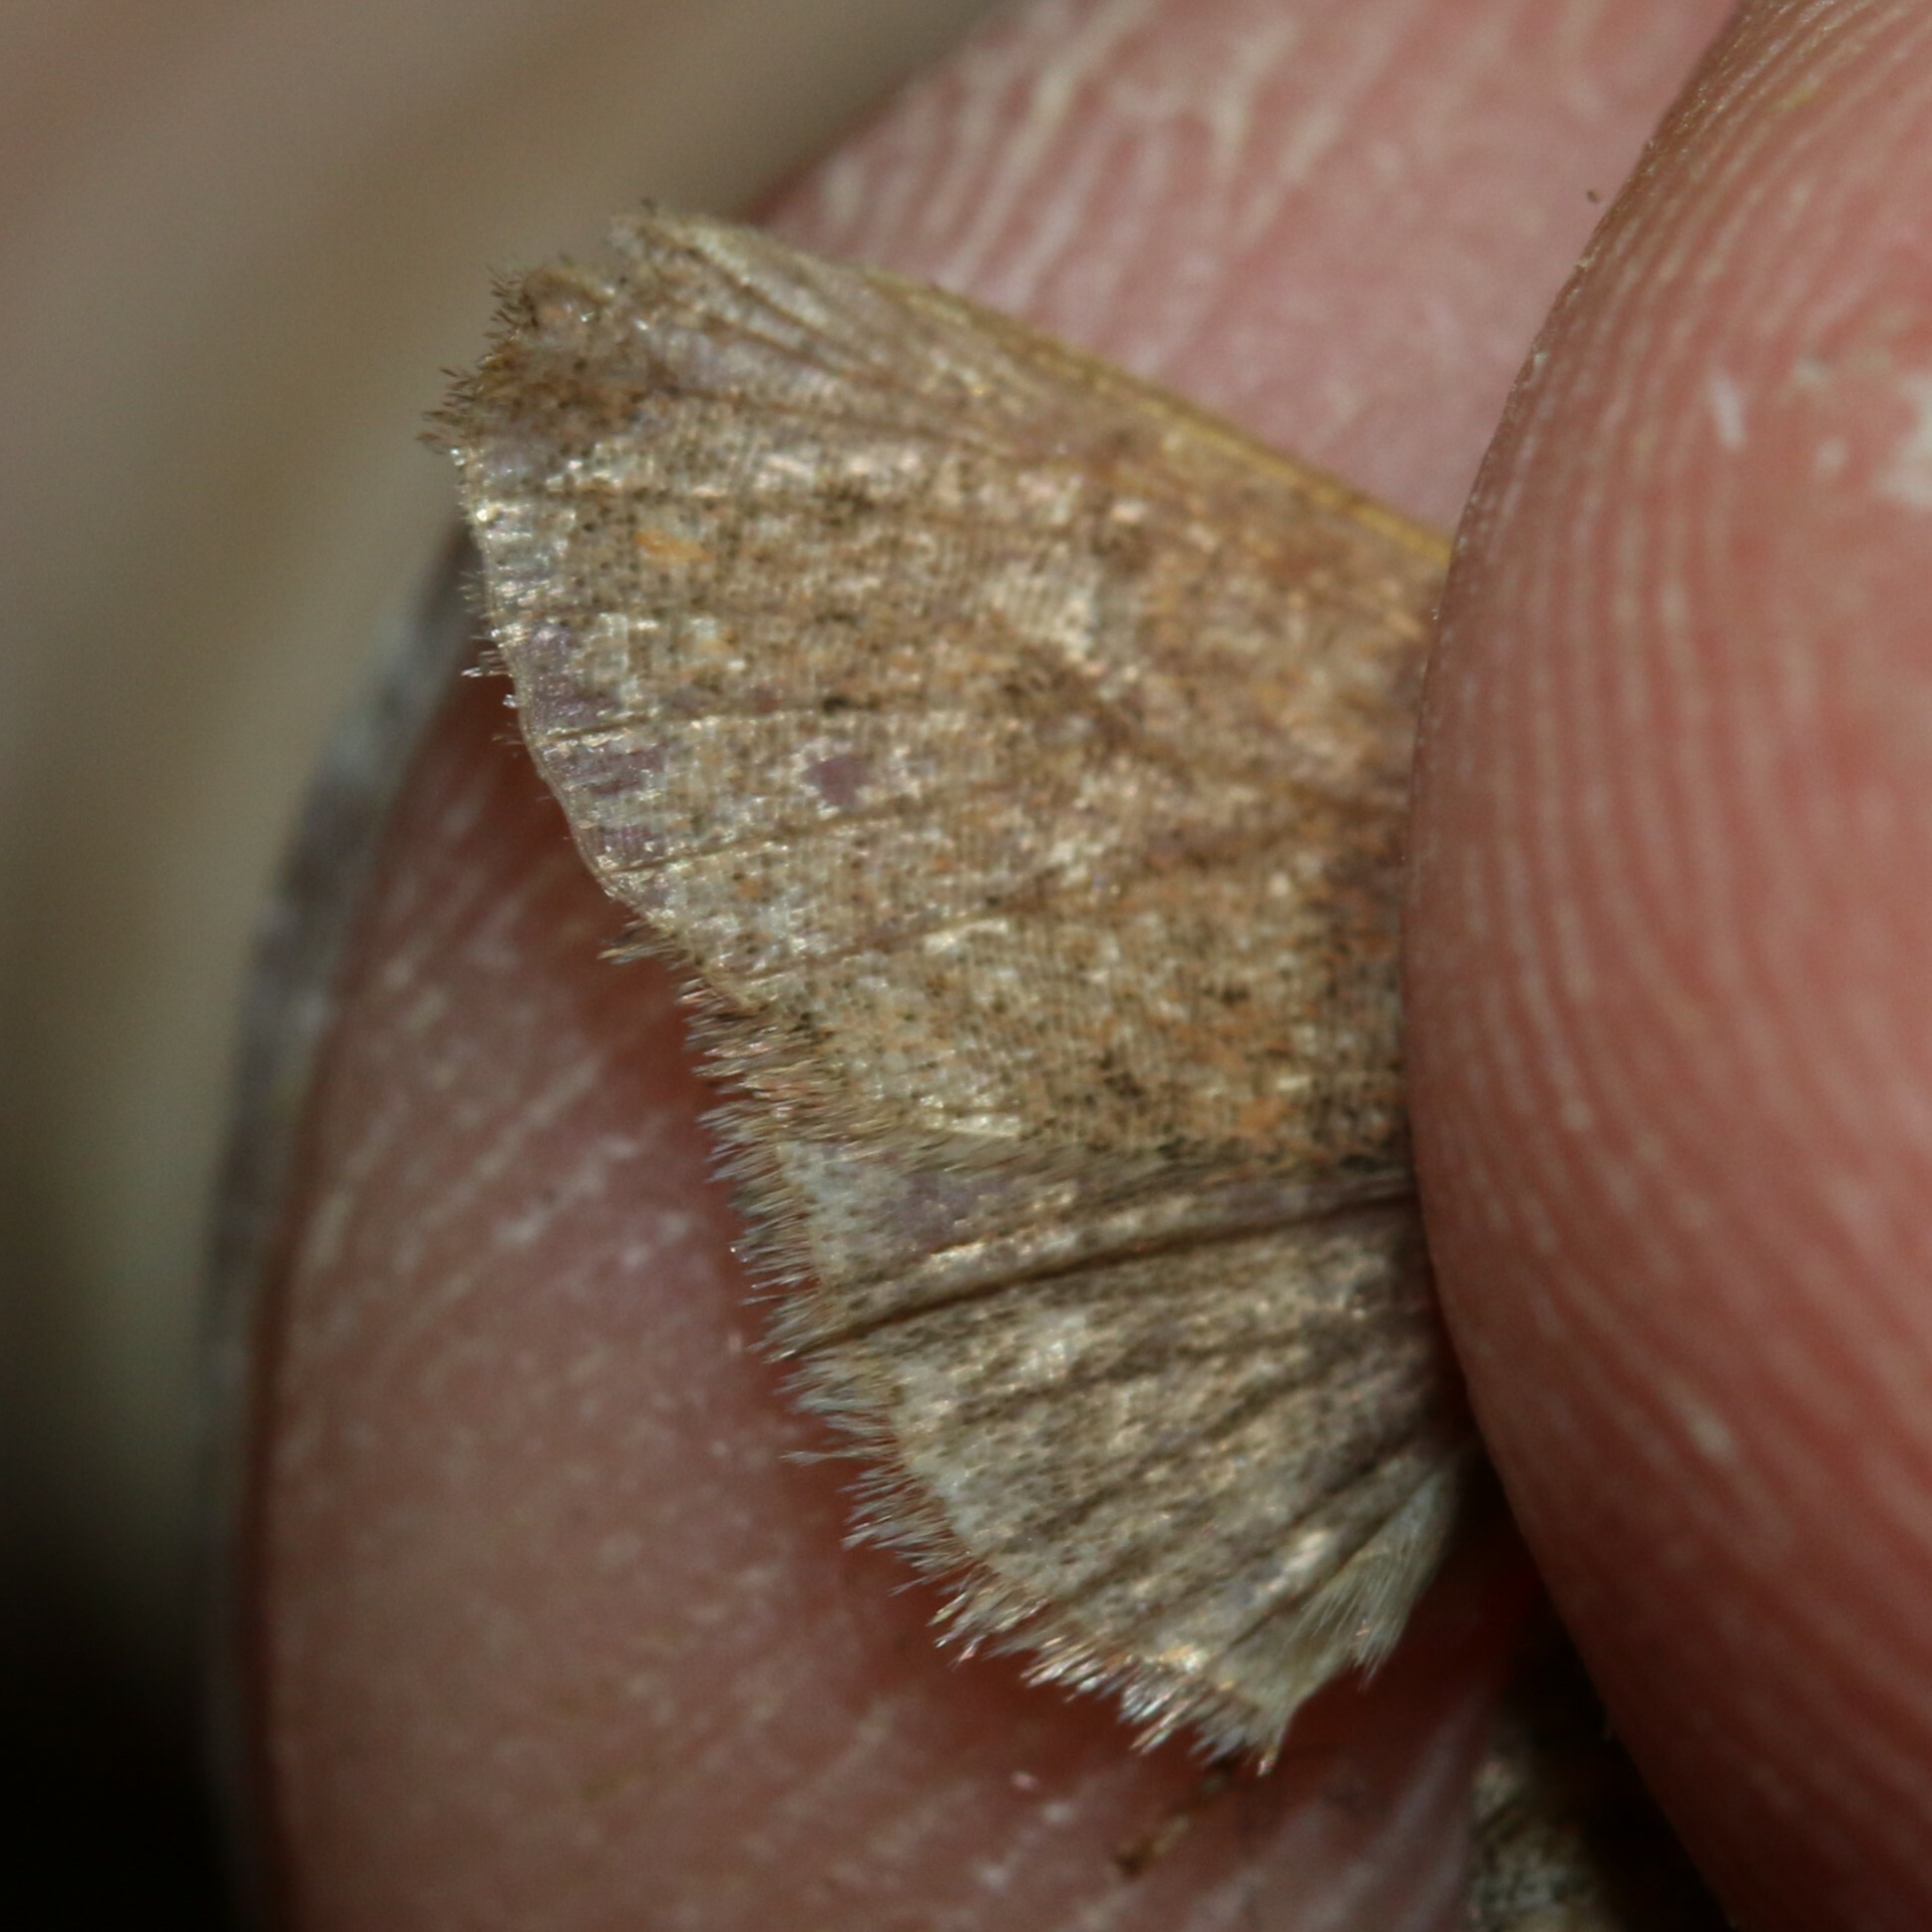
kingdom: Animalia
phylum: Arthropoda
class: Insecta
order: Lepidoptera
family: Noctuidae
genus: Orthosia
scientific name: Orthosia cruda
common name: Small quaker
